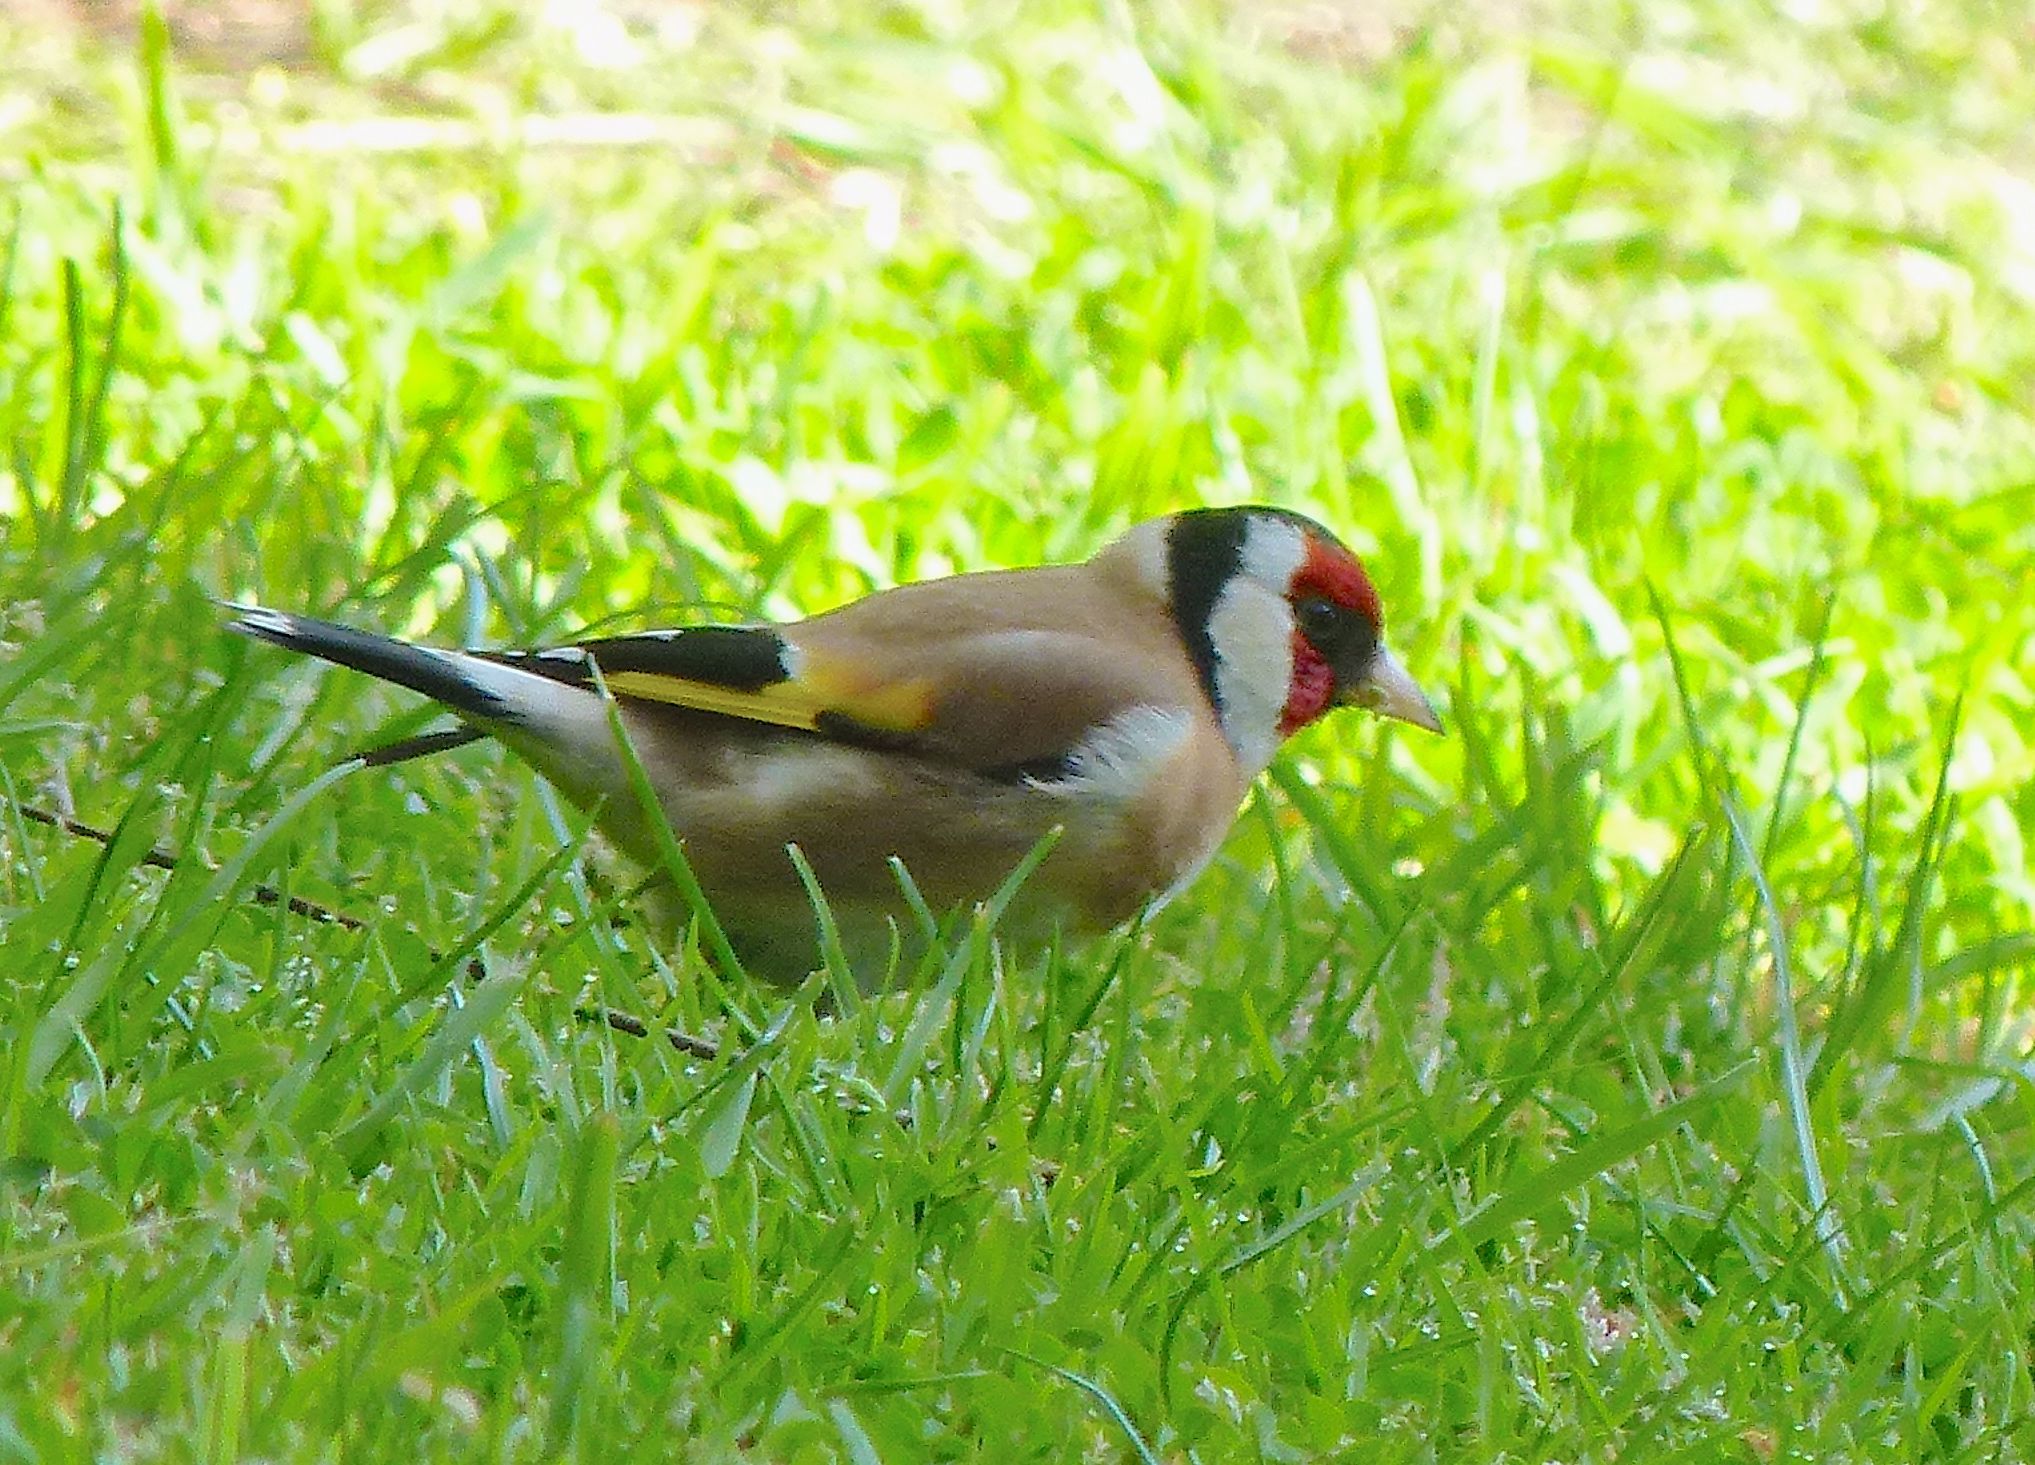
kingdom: Animalia
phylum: Chordata
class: Aves
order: Passeriformes
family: Fringillidae
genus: Carduelis
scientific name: Carduelis carduelis
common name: European goldfinch
